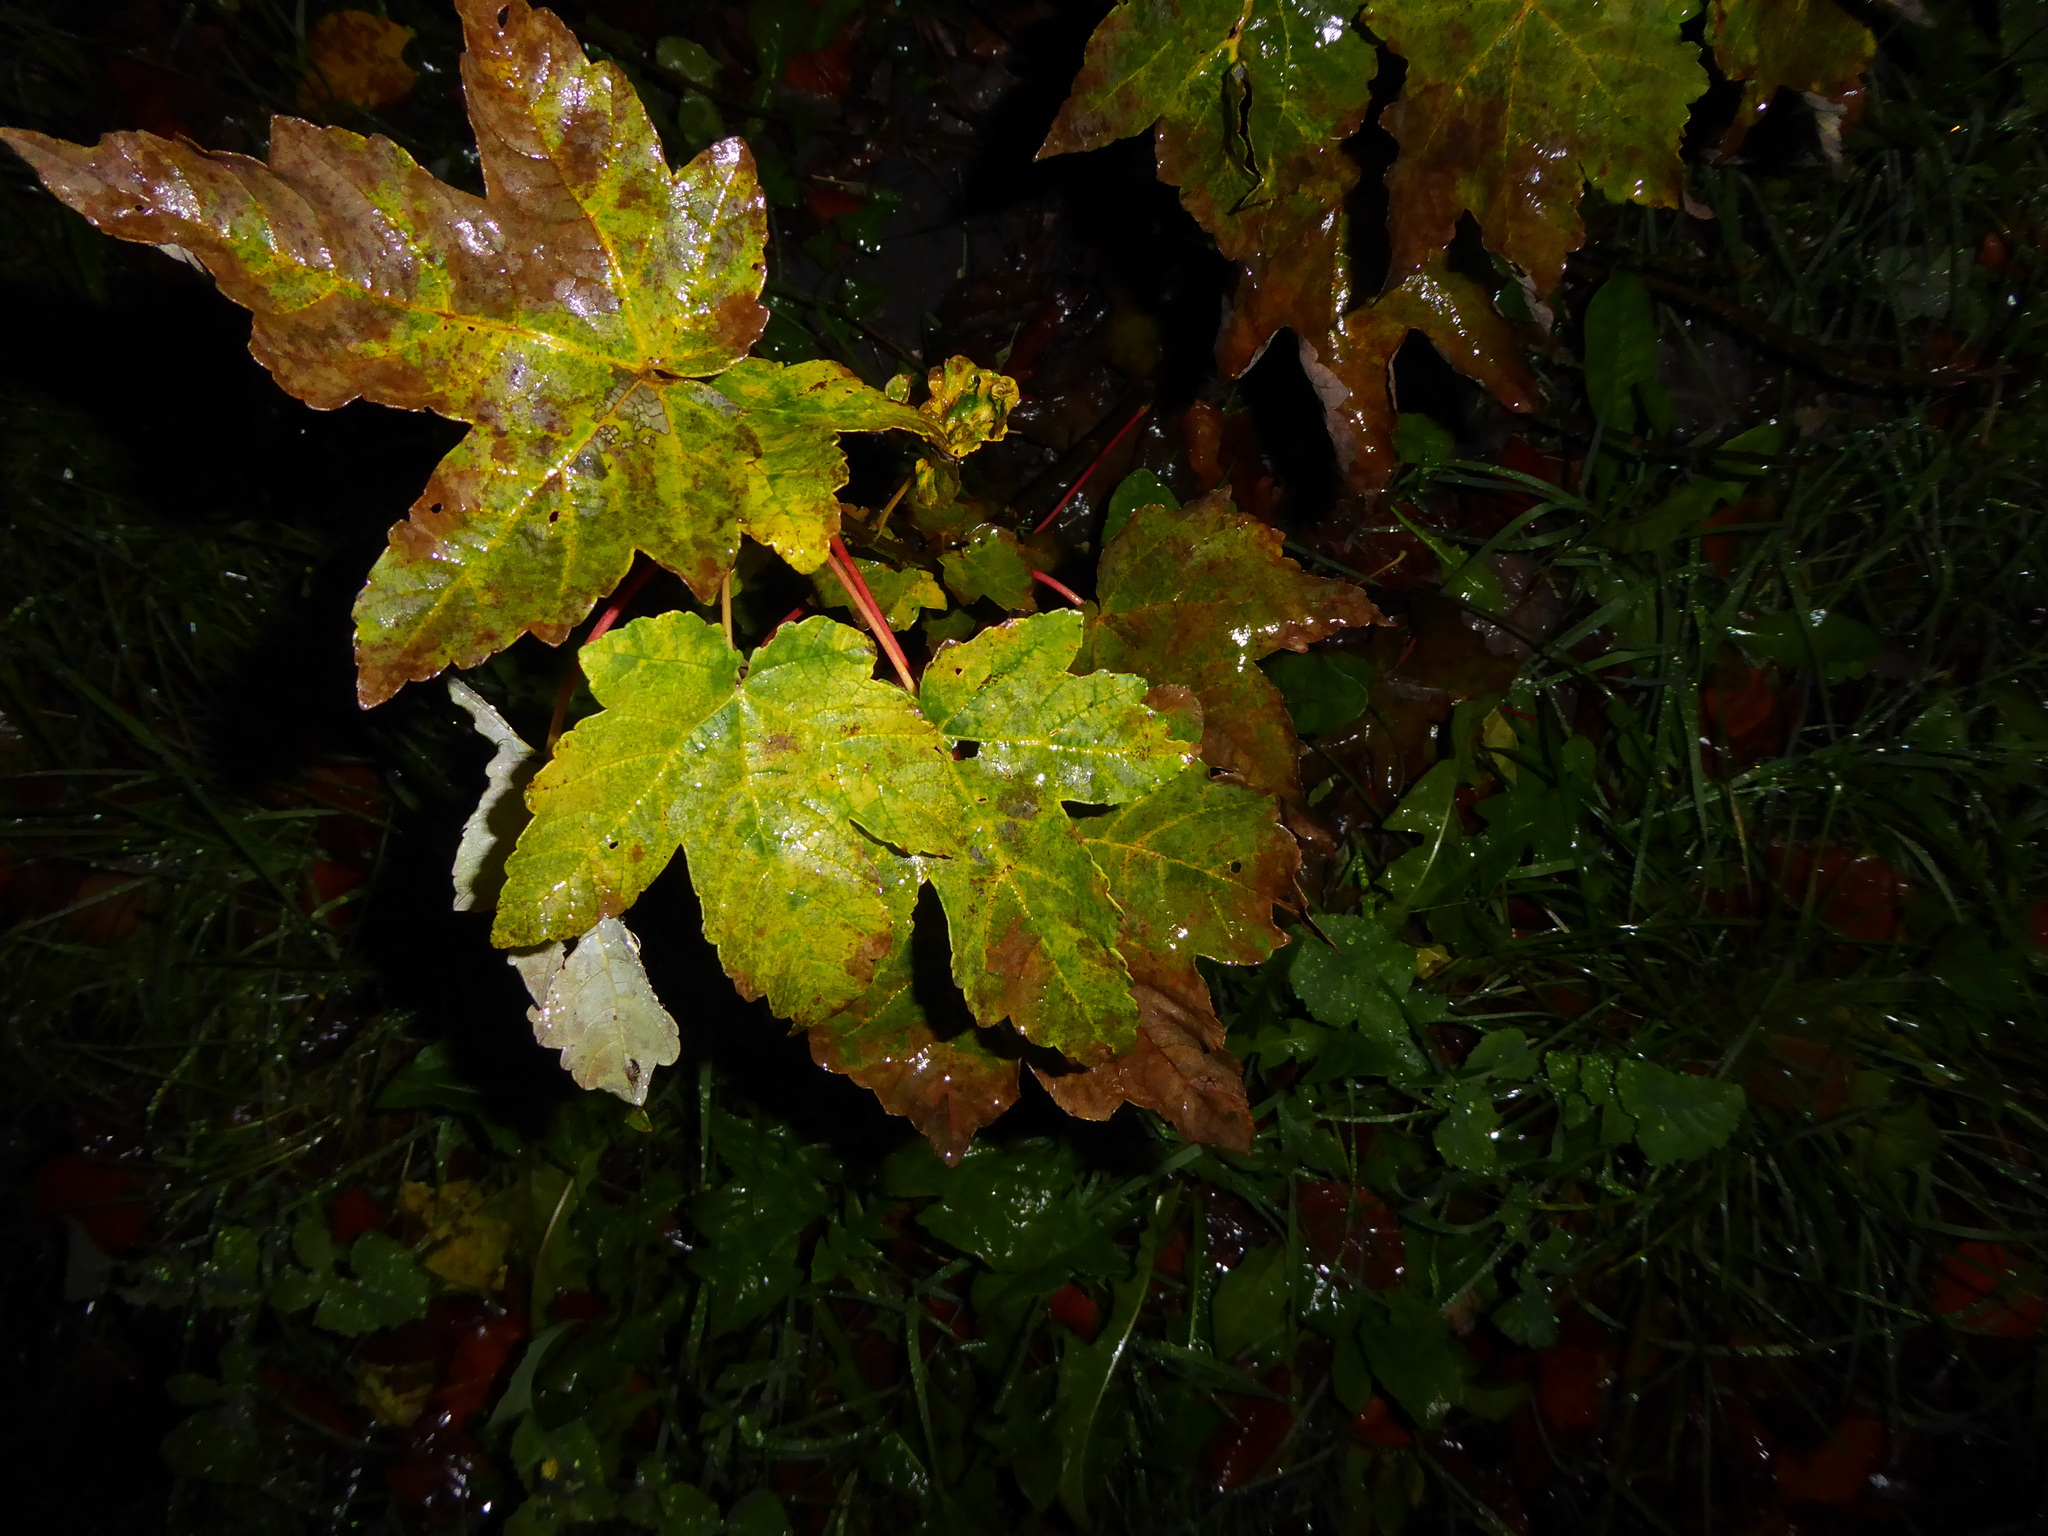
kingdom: Plantae
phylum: Tracheophyta
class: Magnoliopsida
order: Sapindales
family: Sapindaceae
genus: Acer
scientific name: Acer pseudoplatanus
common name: Sycamore
